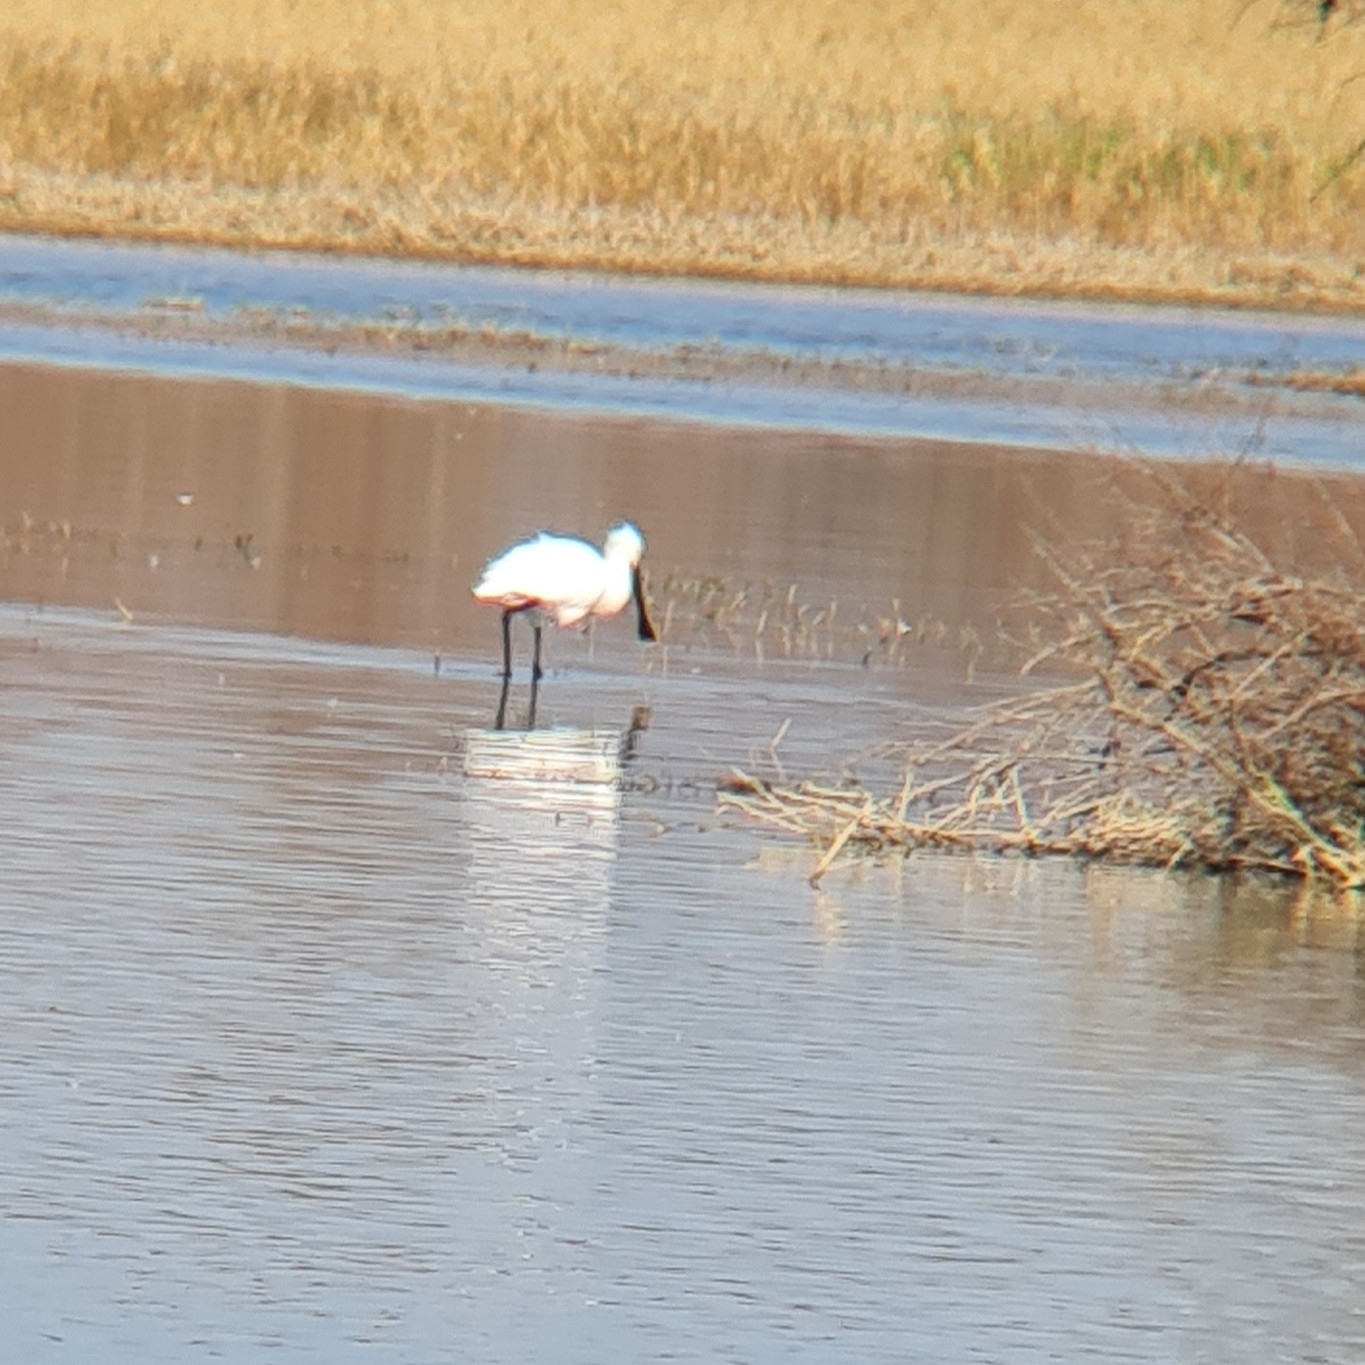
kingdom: Animalia
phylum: Chordata
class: Aves
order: Pelecaniformes
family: Threskiornithidae
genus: Platalea
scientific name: Platalea leucorodia
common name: Eurasian spoonbill
